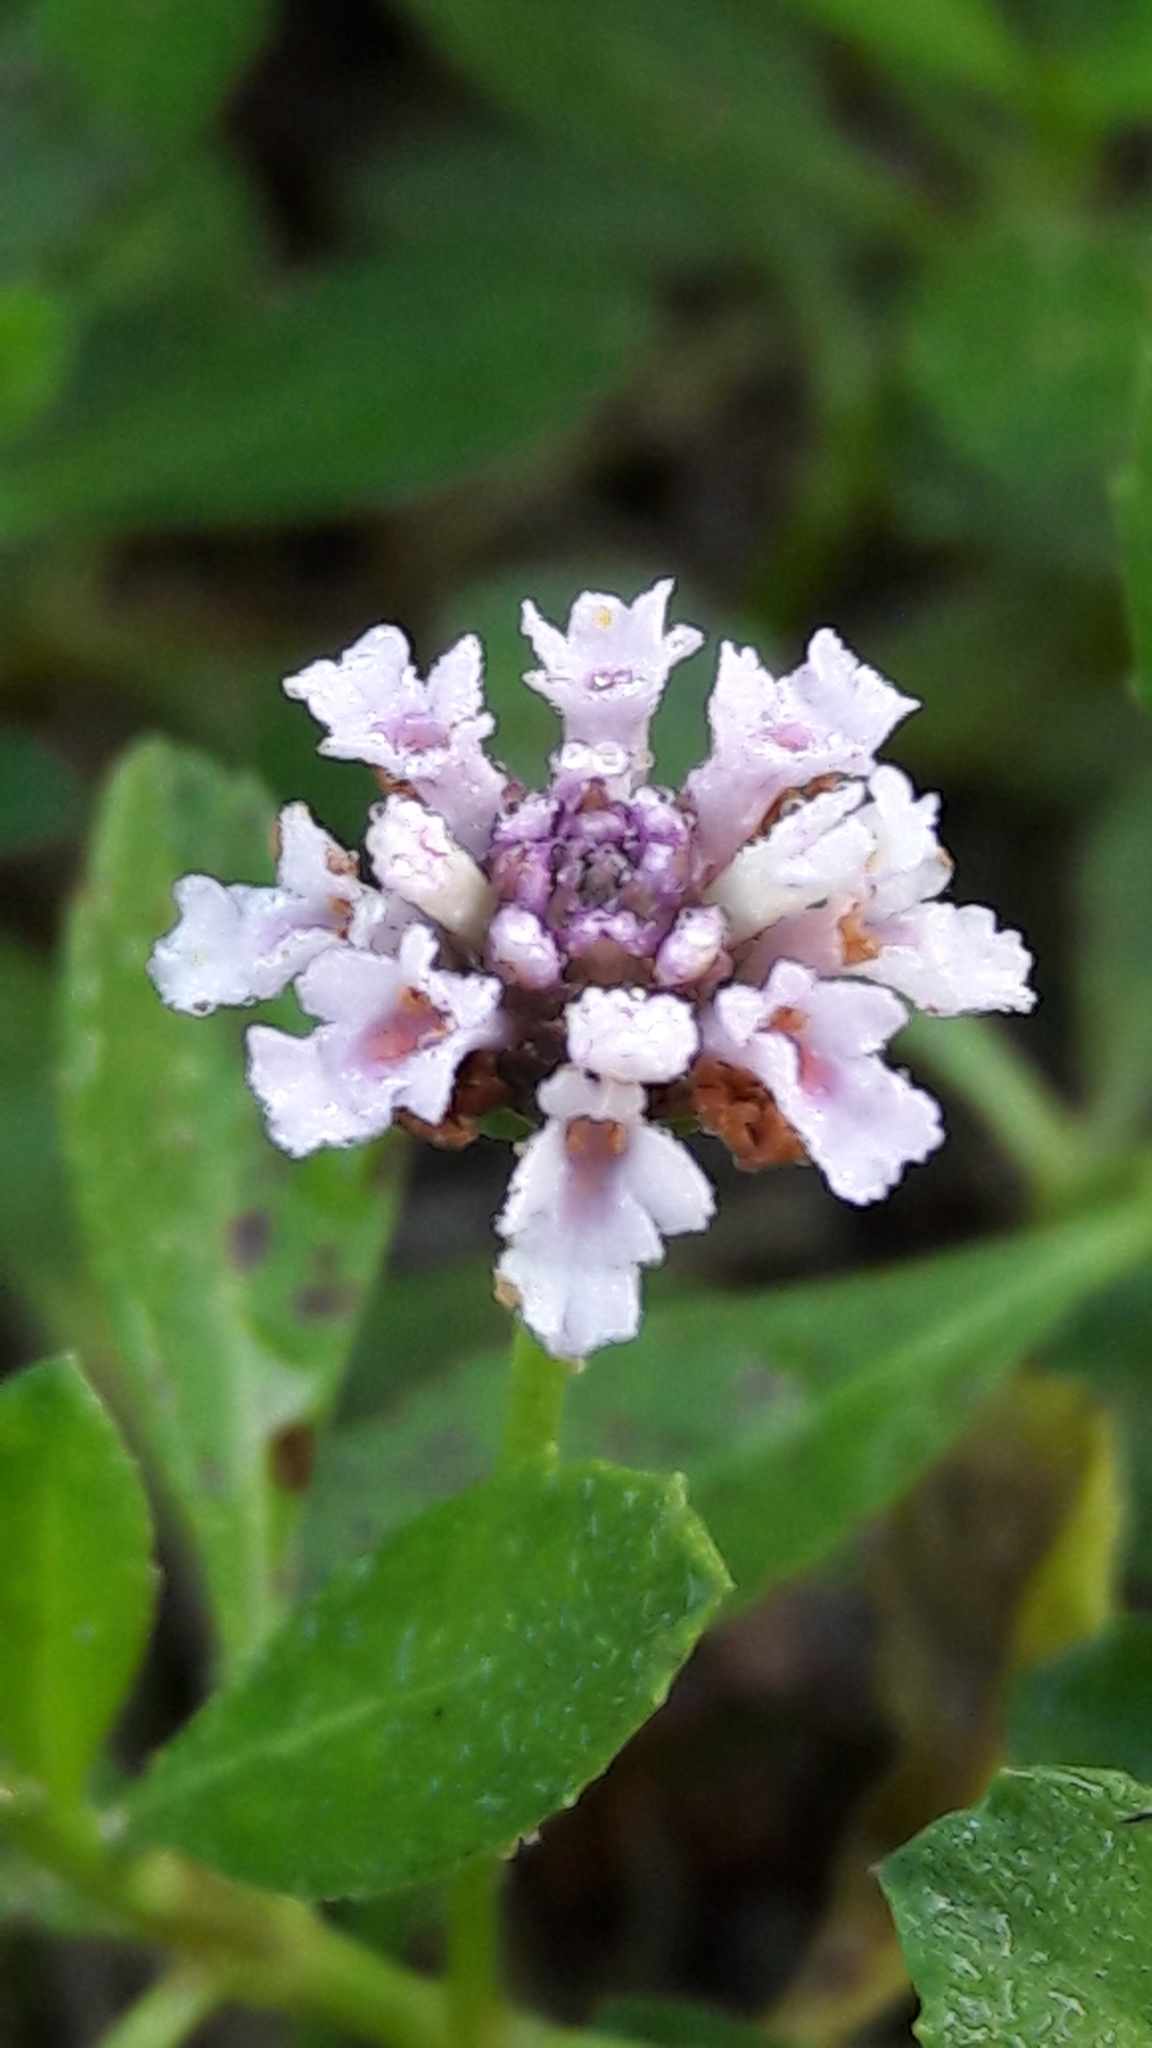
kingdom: Plantae
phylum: Tracheophyta
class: Magnoliopsida
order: Lamiales
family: Verbenaceae
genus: Phyla
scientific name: Phyla nodiflora
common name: Frogfruit
